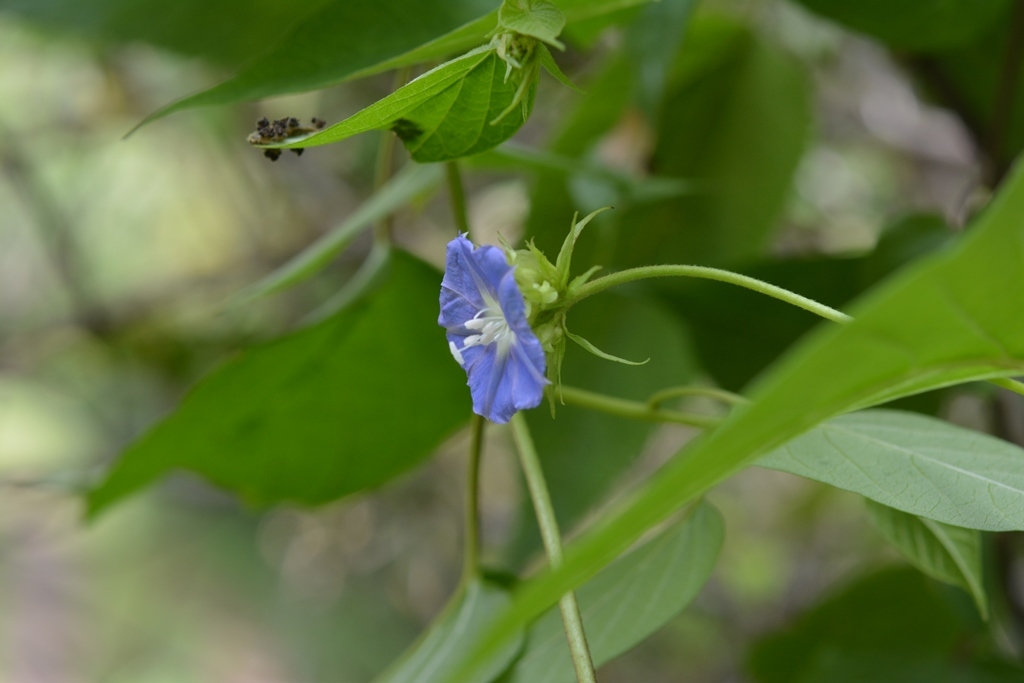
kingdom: Plantae
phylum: Tracheophyta
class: Magnoliopsida
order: Solanales
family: Convolvulaceae
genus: Jacquemontia
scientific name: Jacquemontia pentanthos
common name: Skyblue clustervine
